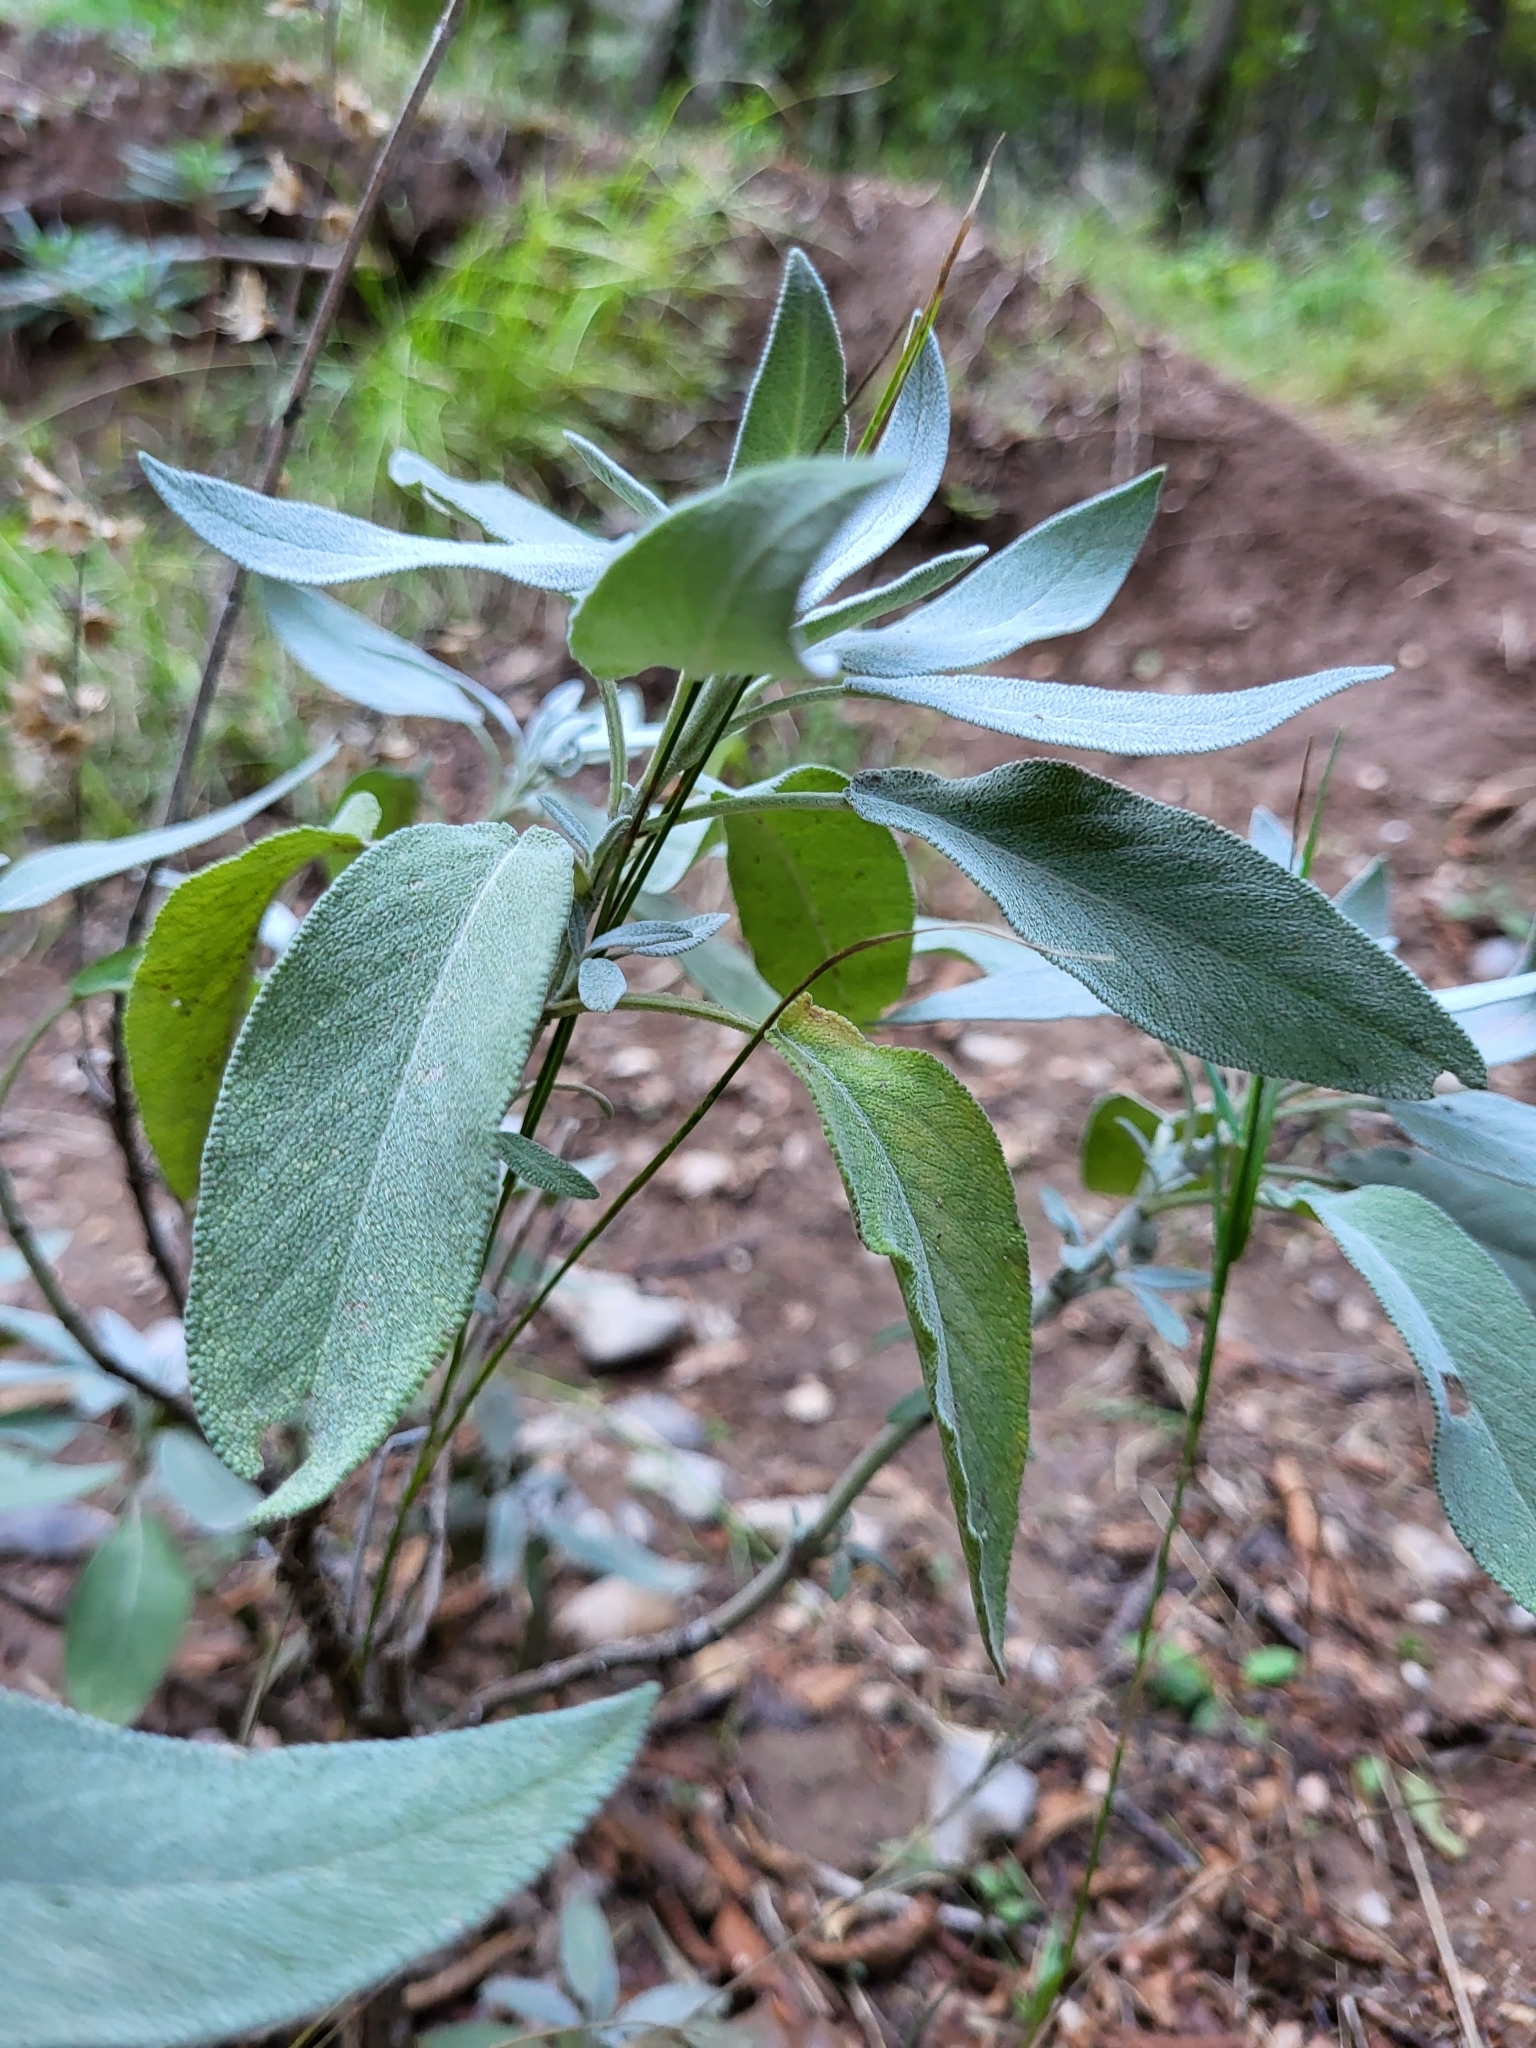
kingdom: Plantae
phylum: Tracheophyta
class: Magnoliopsida
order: Lamiales
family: Lamiaceae
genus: Salvia
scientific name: Salvia officinalis
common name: Sage
